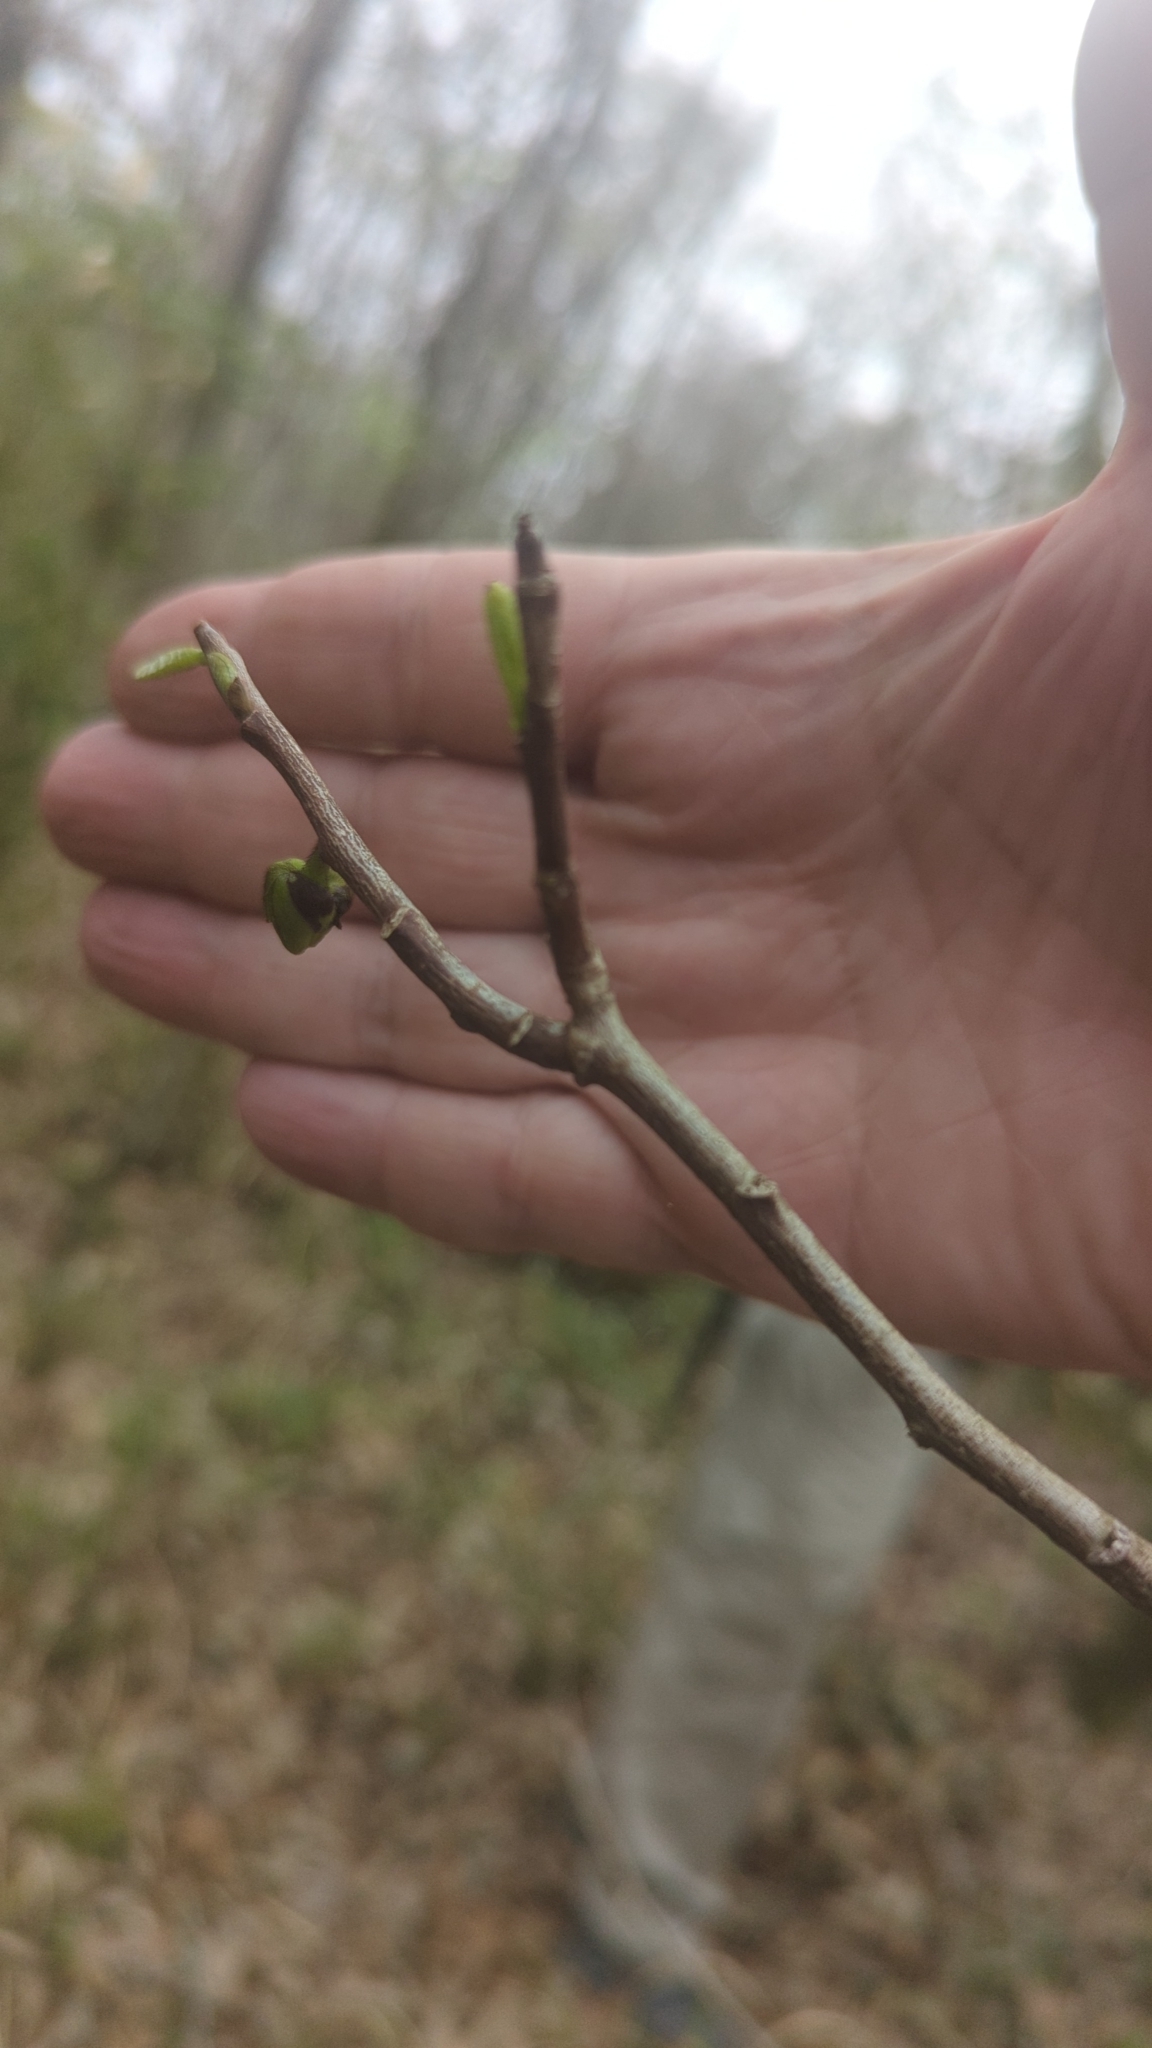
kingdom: Plantae
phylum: Tracheophyta
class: Magnoliopsida
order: Magnoliales
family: Annonaceae
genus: Asimina
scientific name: Asimina triloba
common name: Dog-banana
